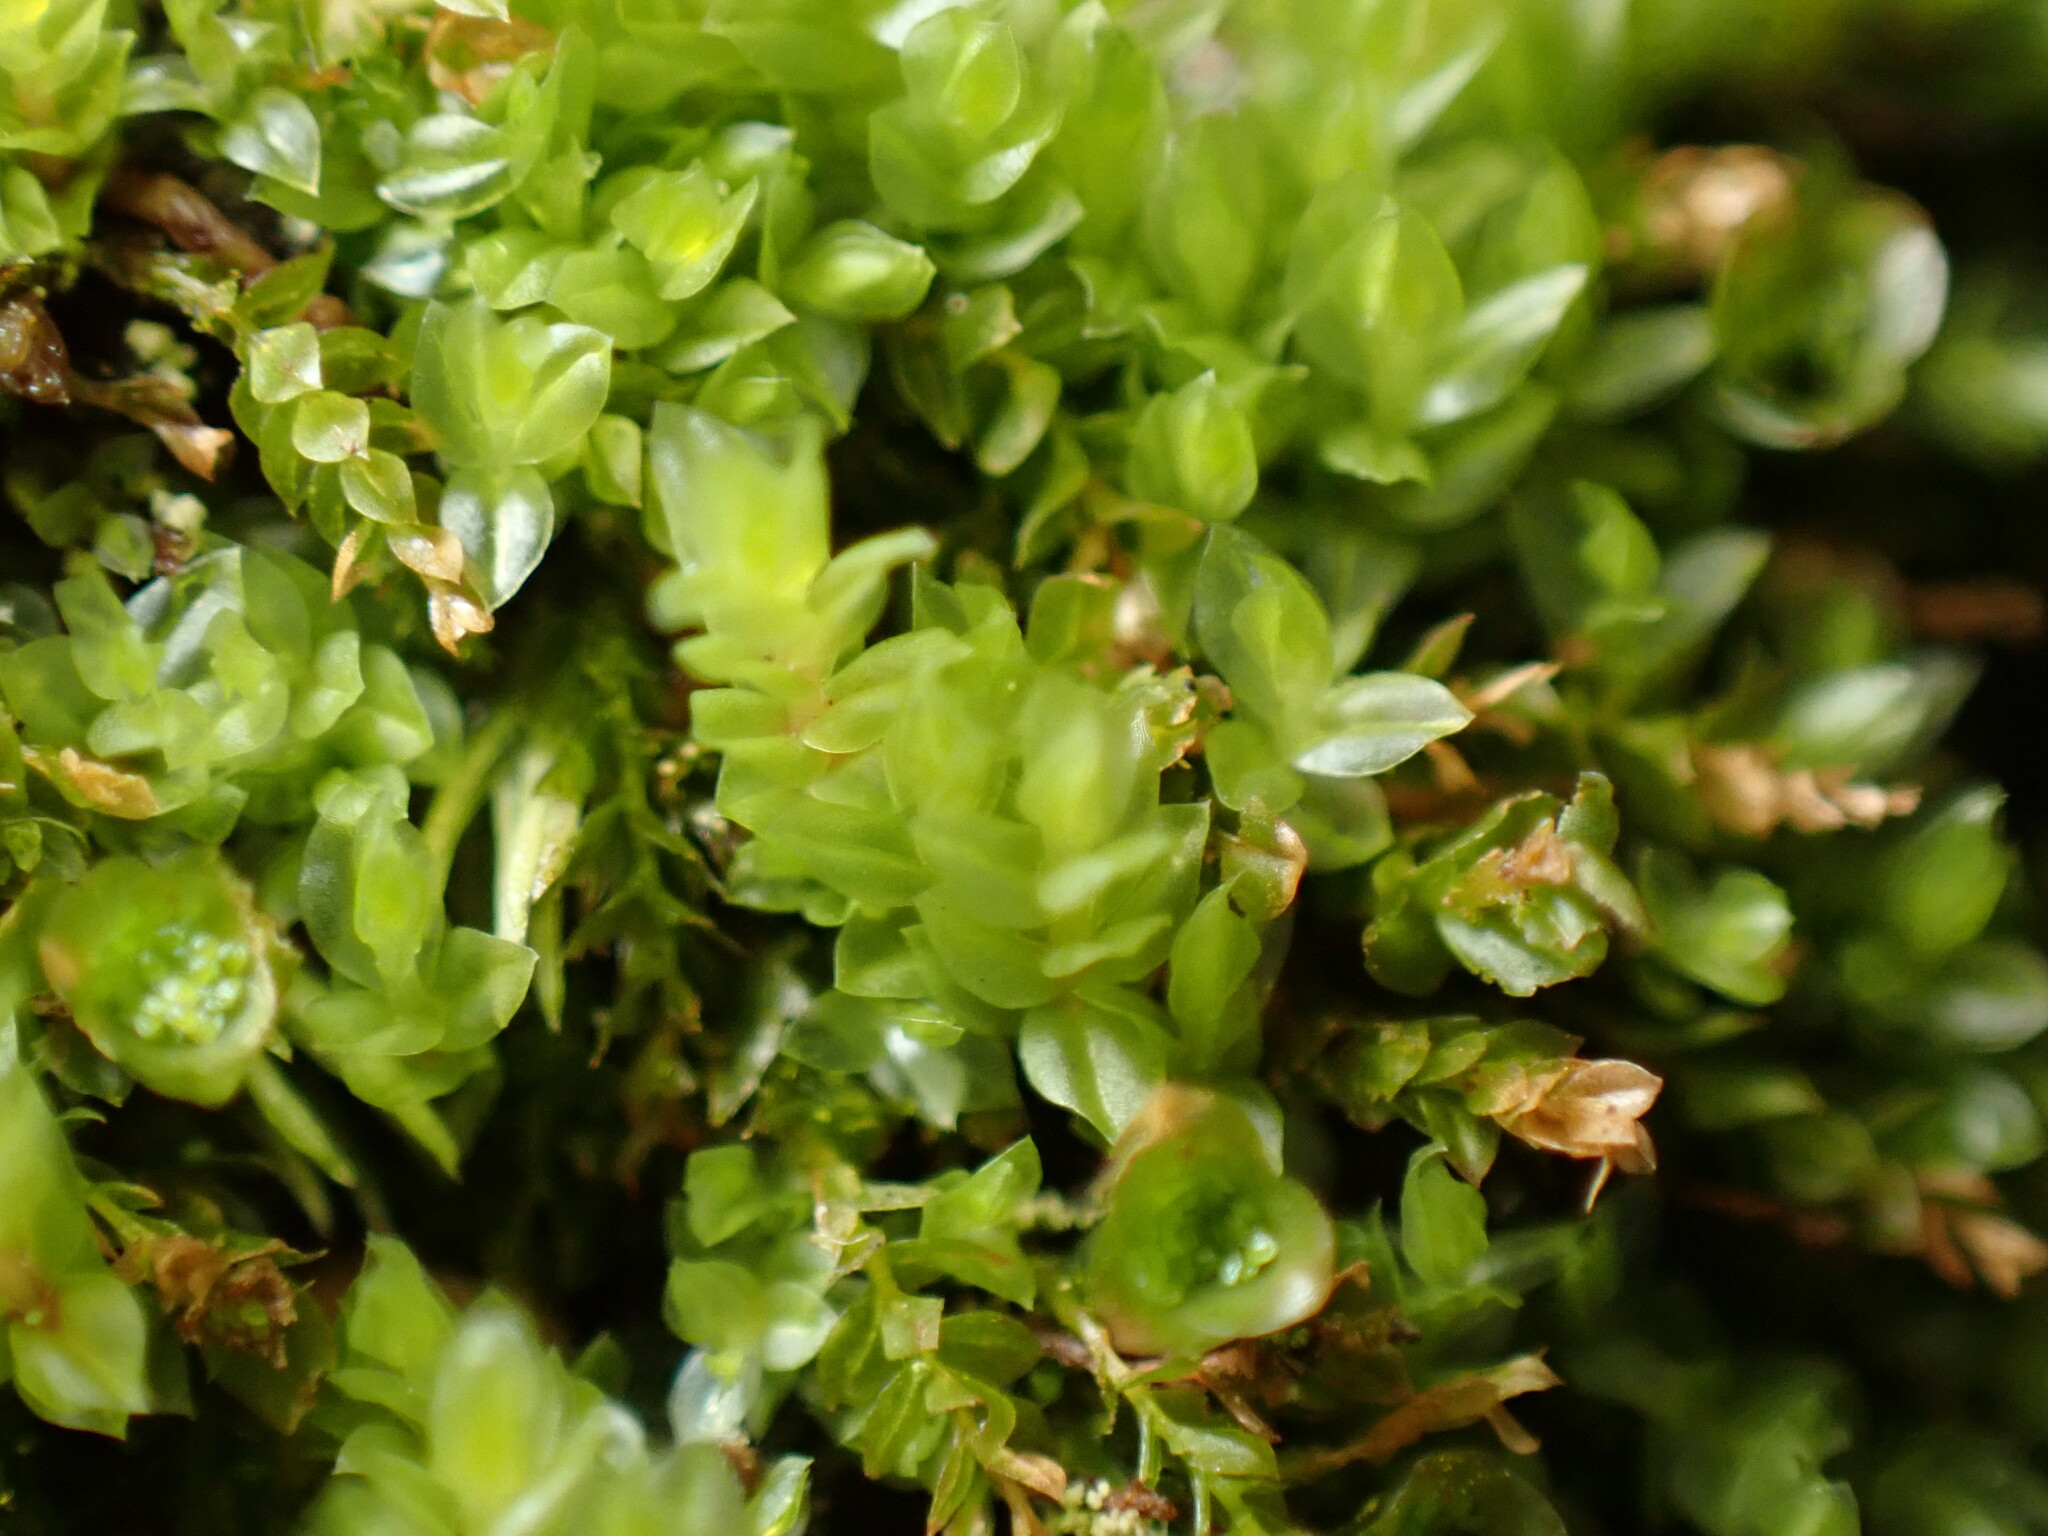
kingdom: Plantae
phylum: Bryophyta
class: Polytrichopsida
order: Tetraphidales
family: Tetraphidaceae
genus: Tetraphis
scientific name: Tetraphis pellucida
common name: Common four-toothed moss
